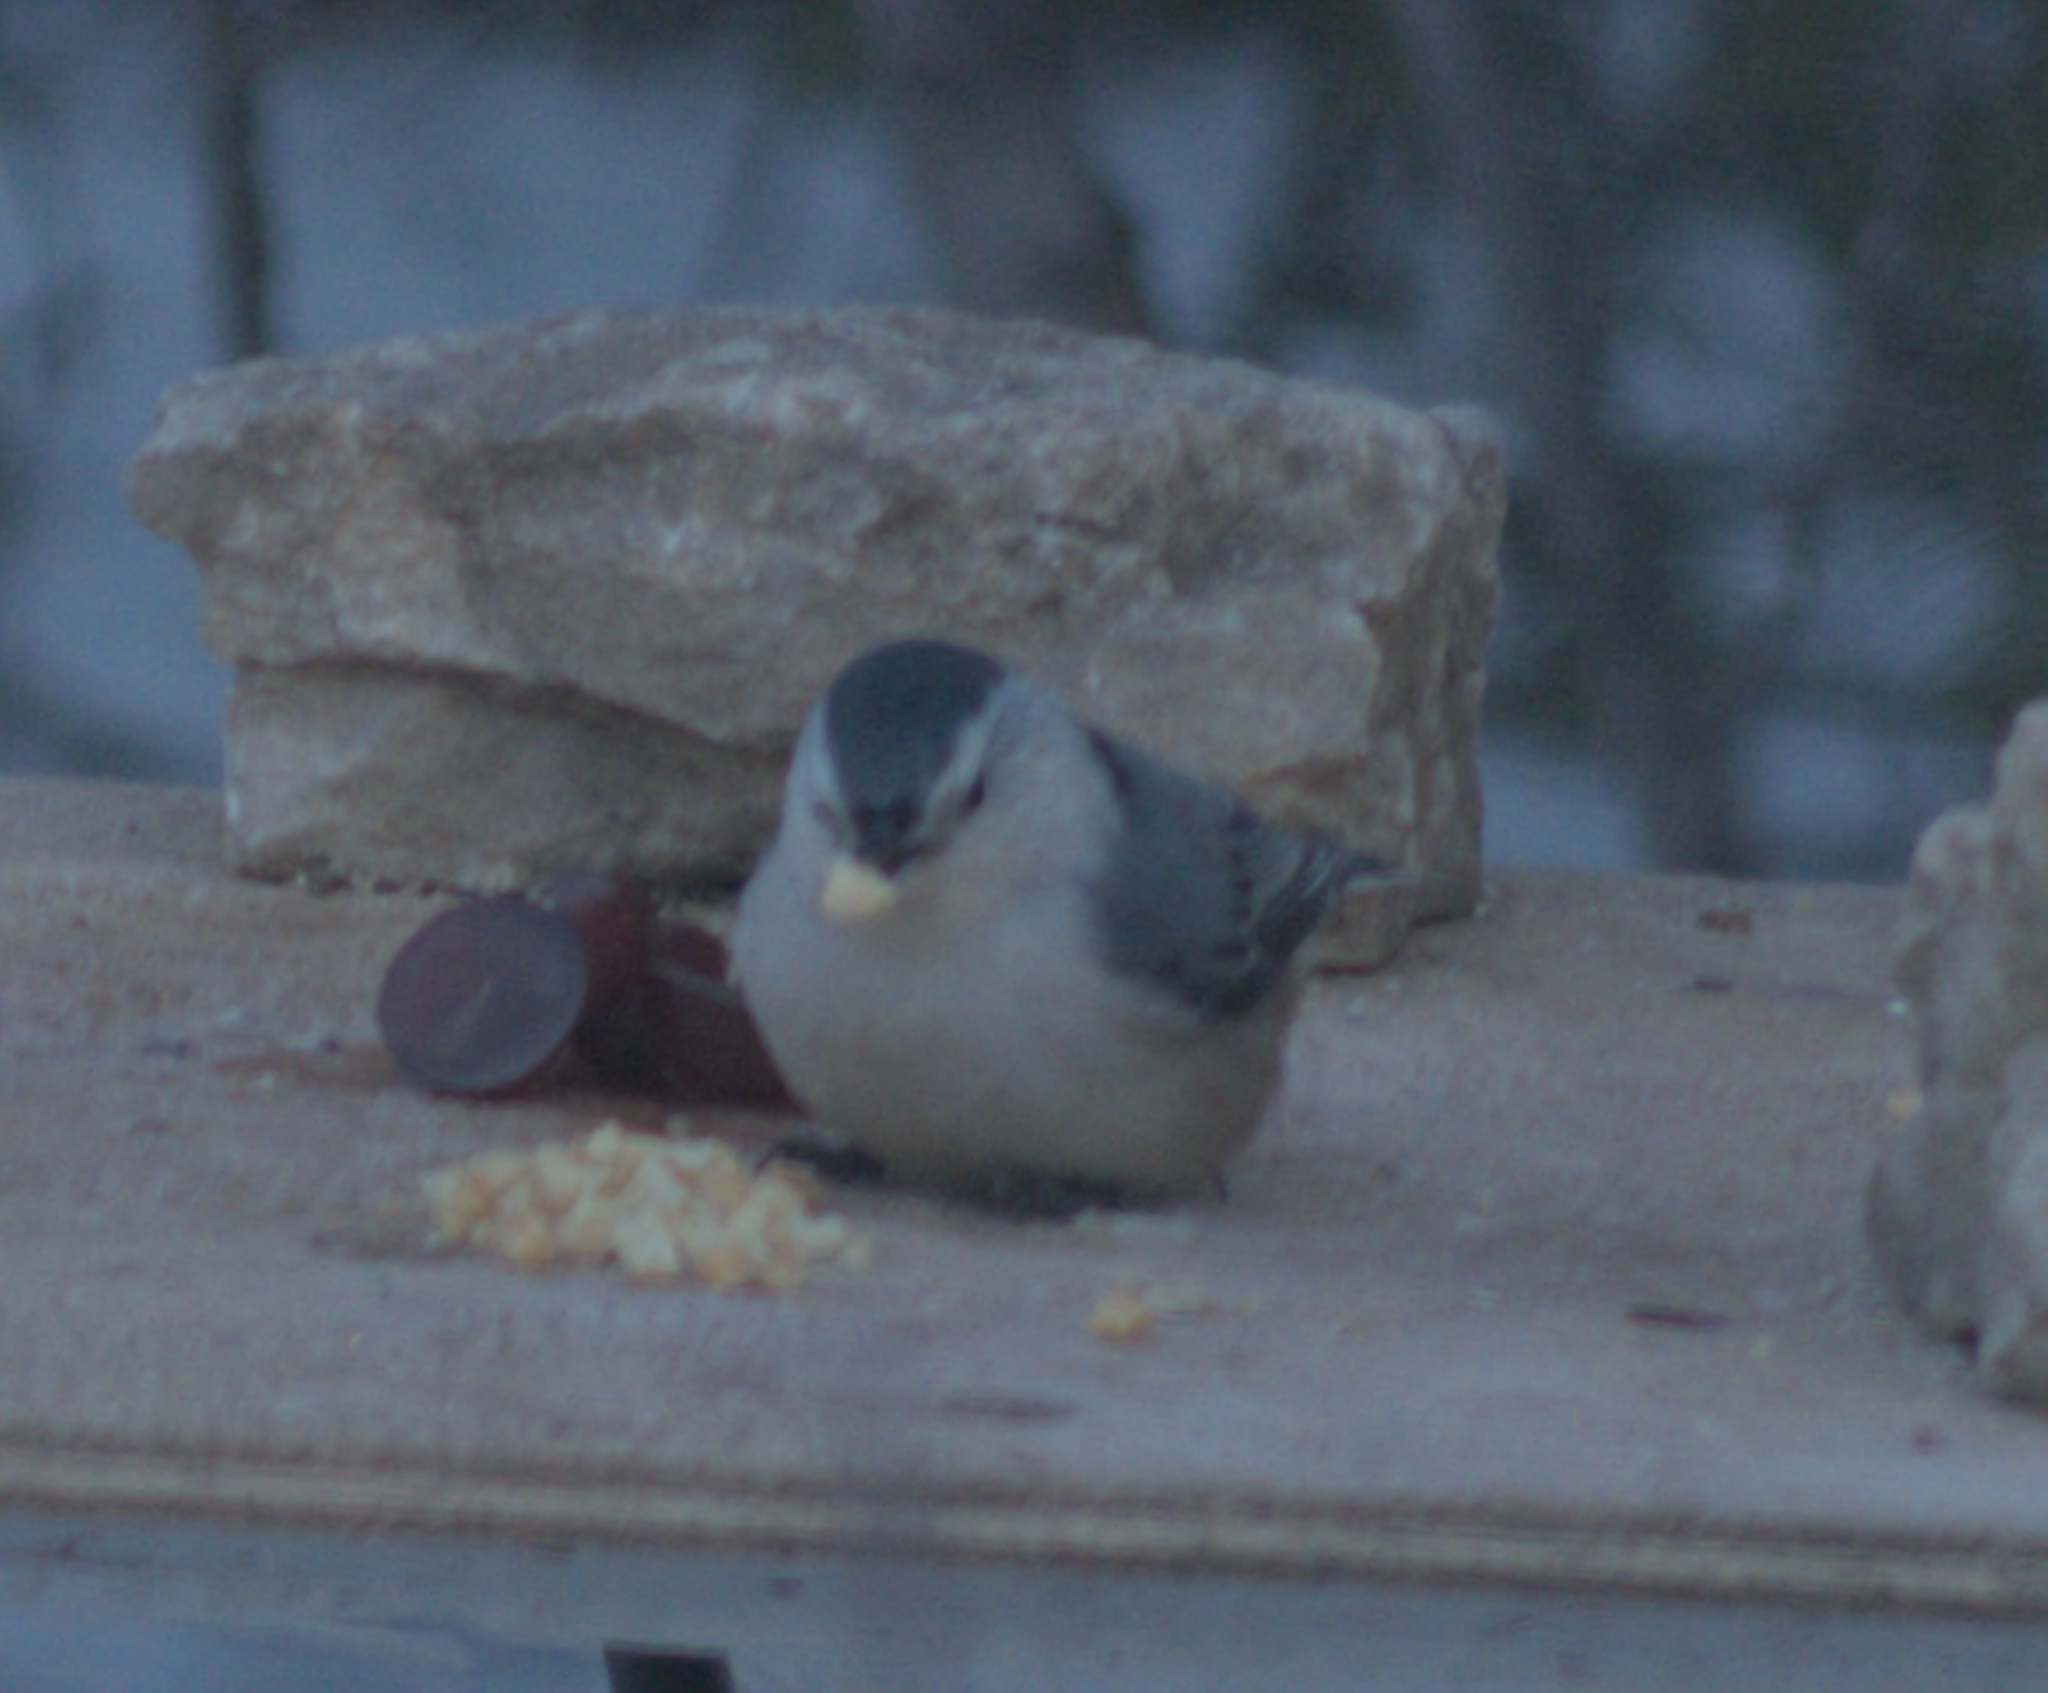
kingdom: Animalia
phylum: Chordata
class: Aves
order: Passeriformes
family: Sittidae
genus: Sitta
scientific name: Sitta carolinensis
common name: White-breasted nuthatch
